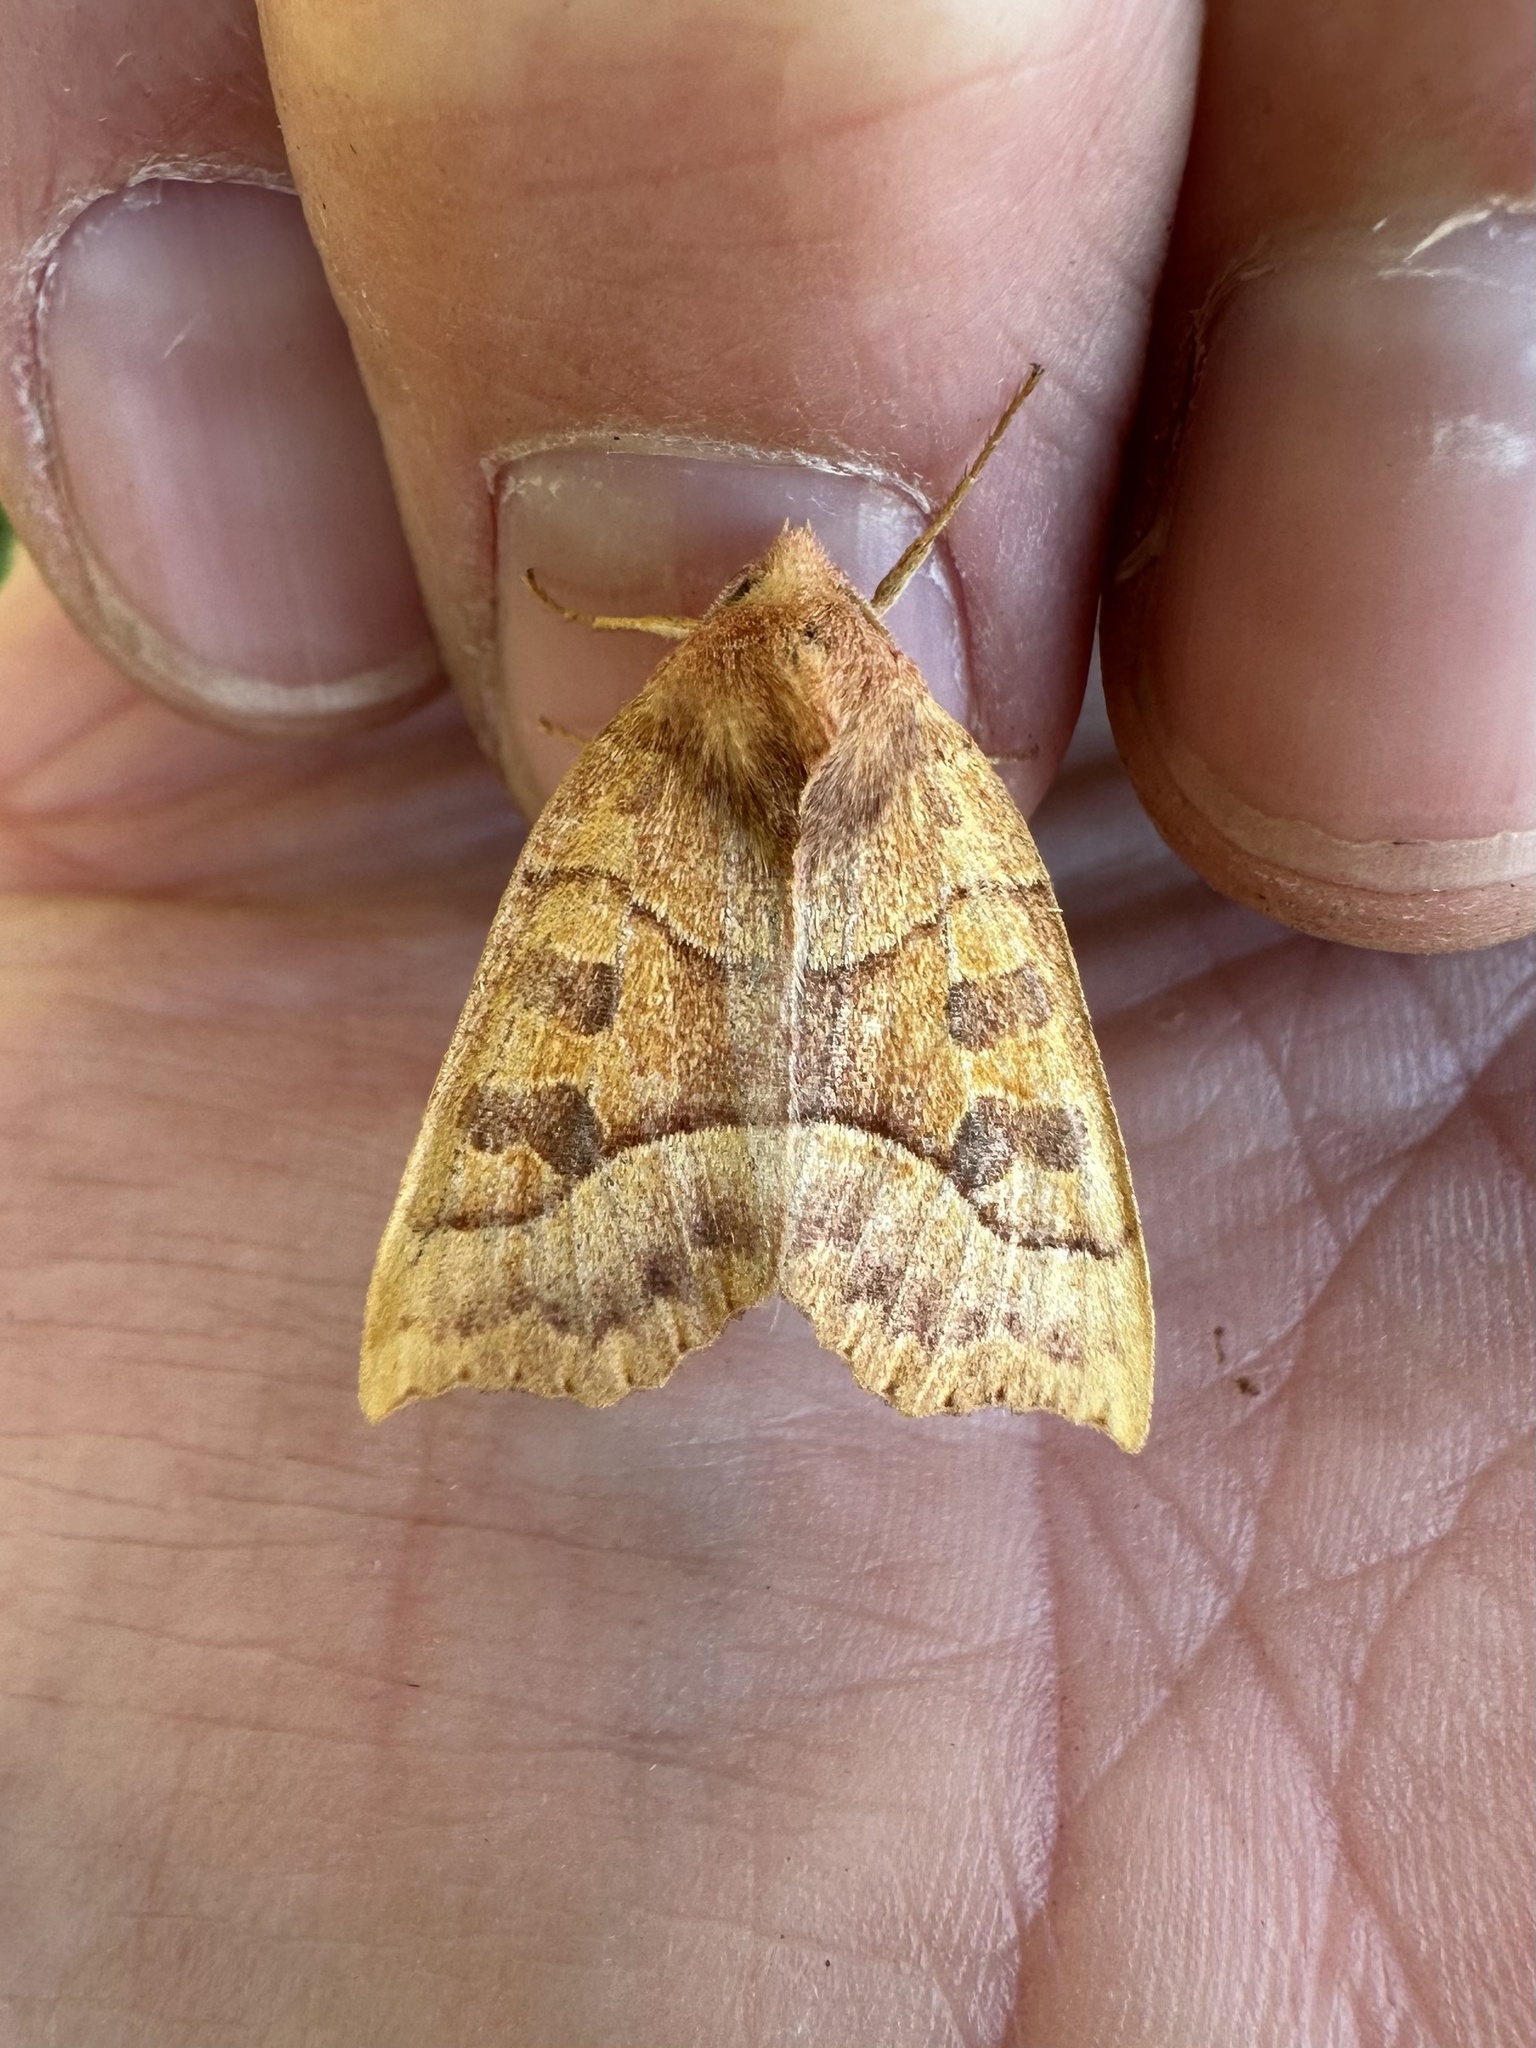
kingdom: Animalia
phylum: Arthropoda
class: Insecta
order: Lepidoptera
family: Noctuidae
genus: Eucirroedia
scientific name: Eucirroedia pampina
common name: Scalloped sallow
